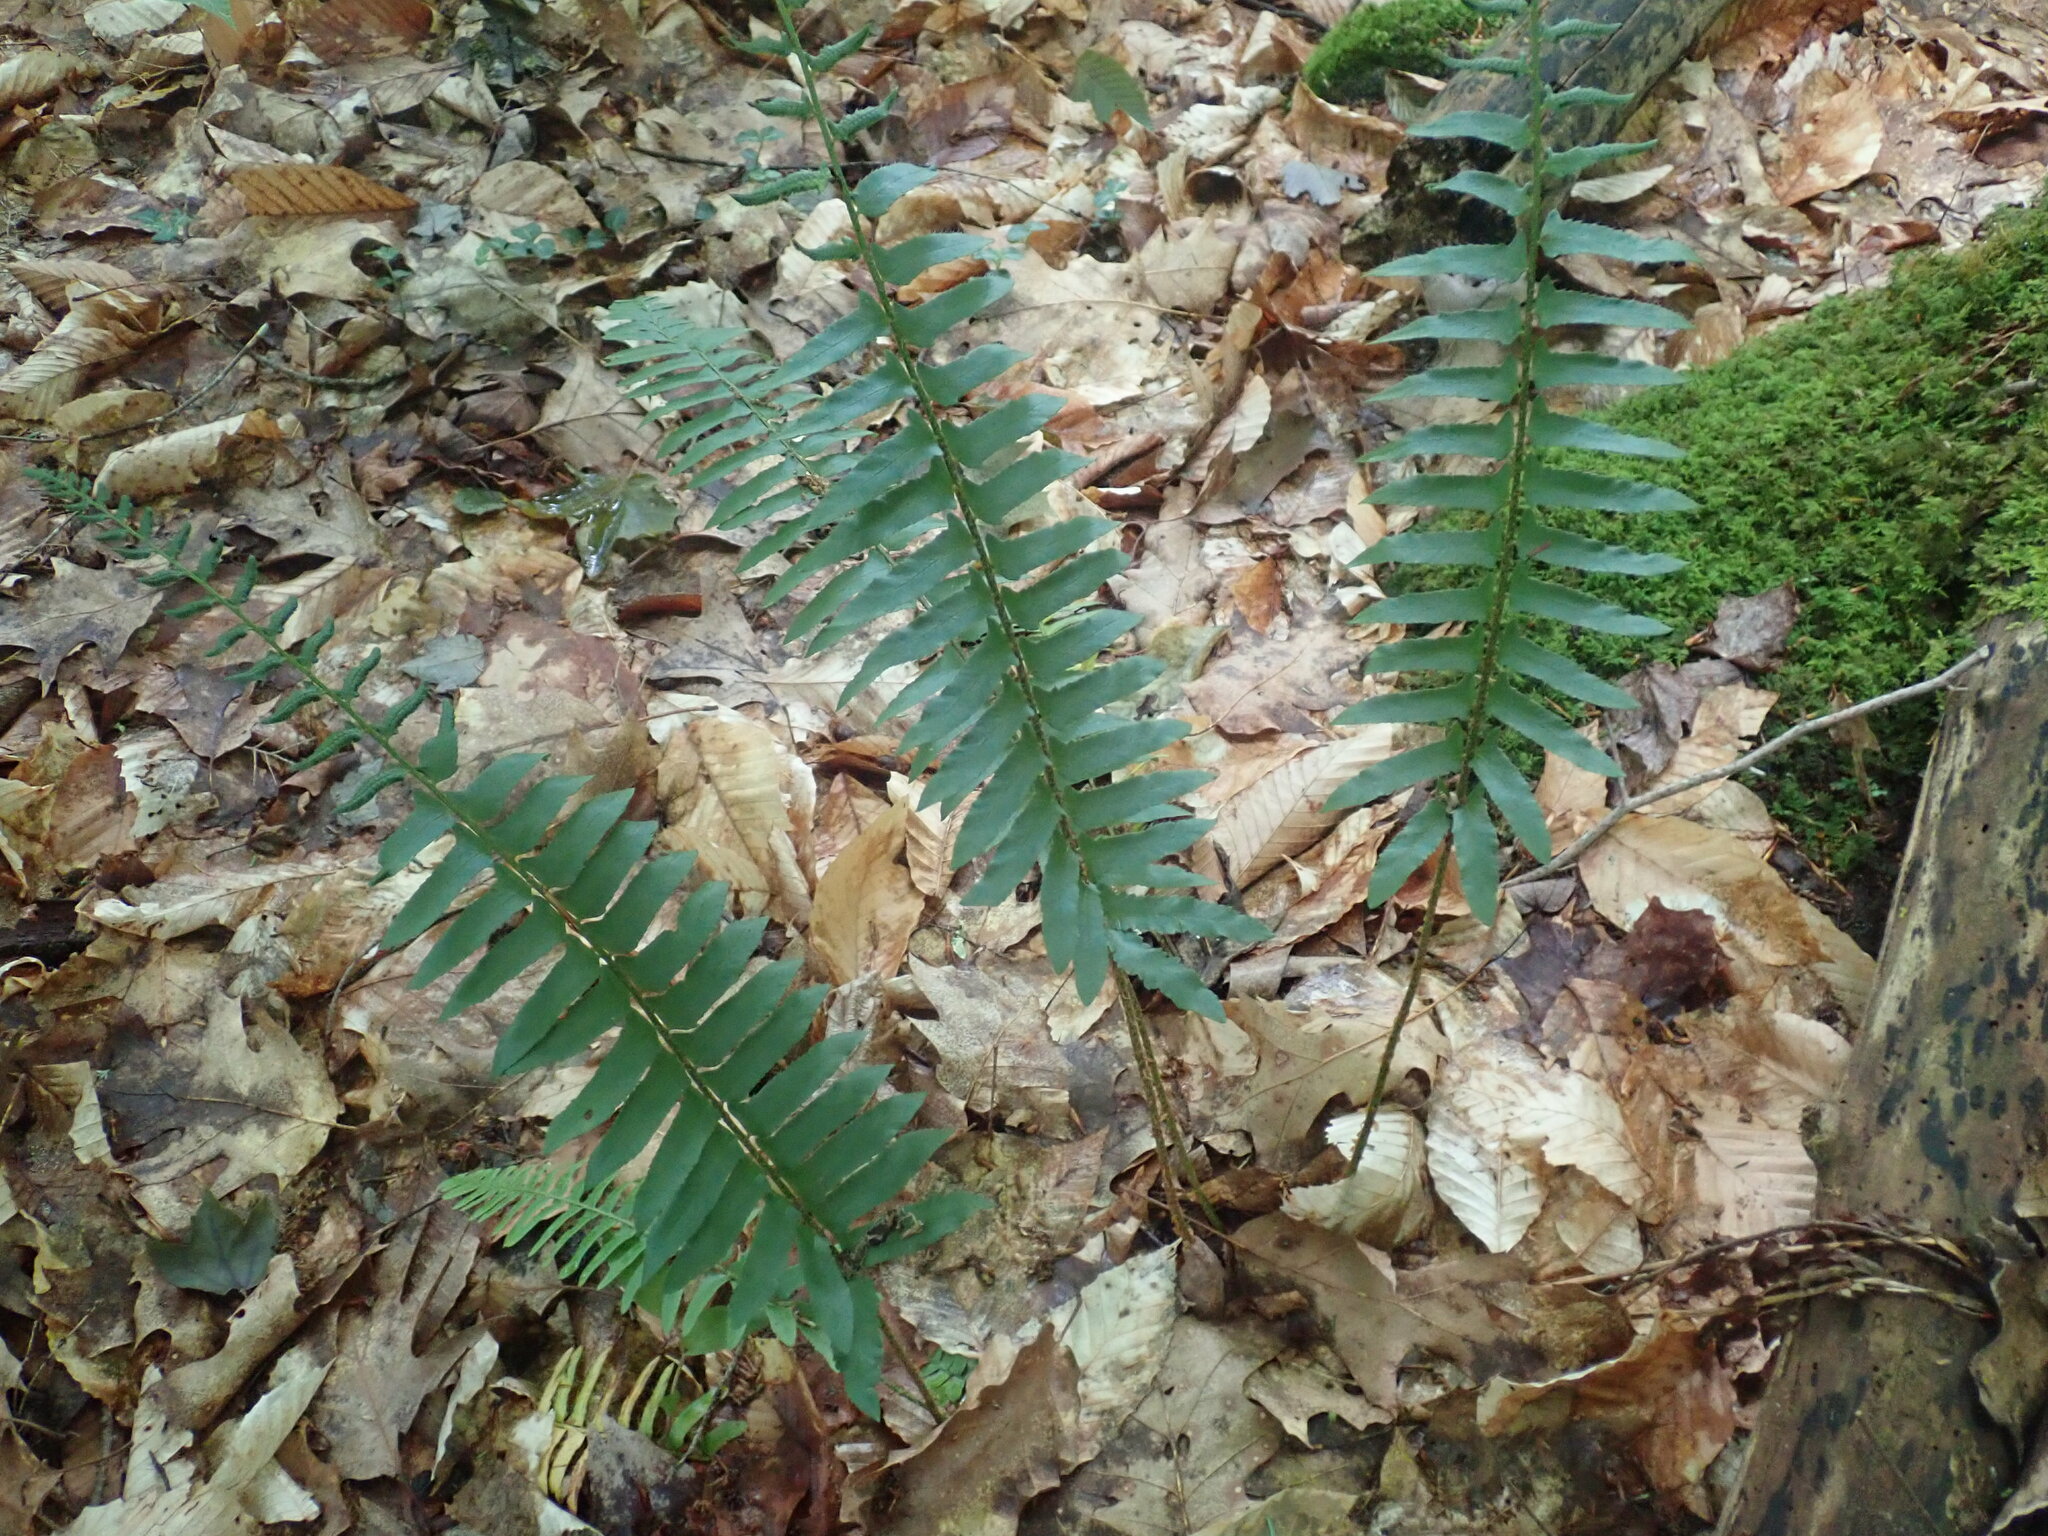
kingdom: Plantae
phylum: Tracheophyta
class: Polypodiopsida
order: Polypodiales
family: Dryopteridaceae
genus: Polystichum
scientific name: Polystichum acrostichoides
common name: Christmas fern
